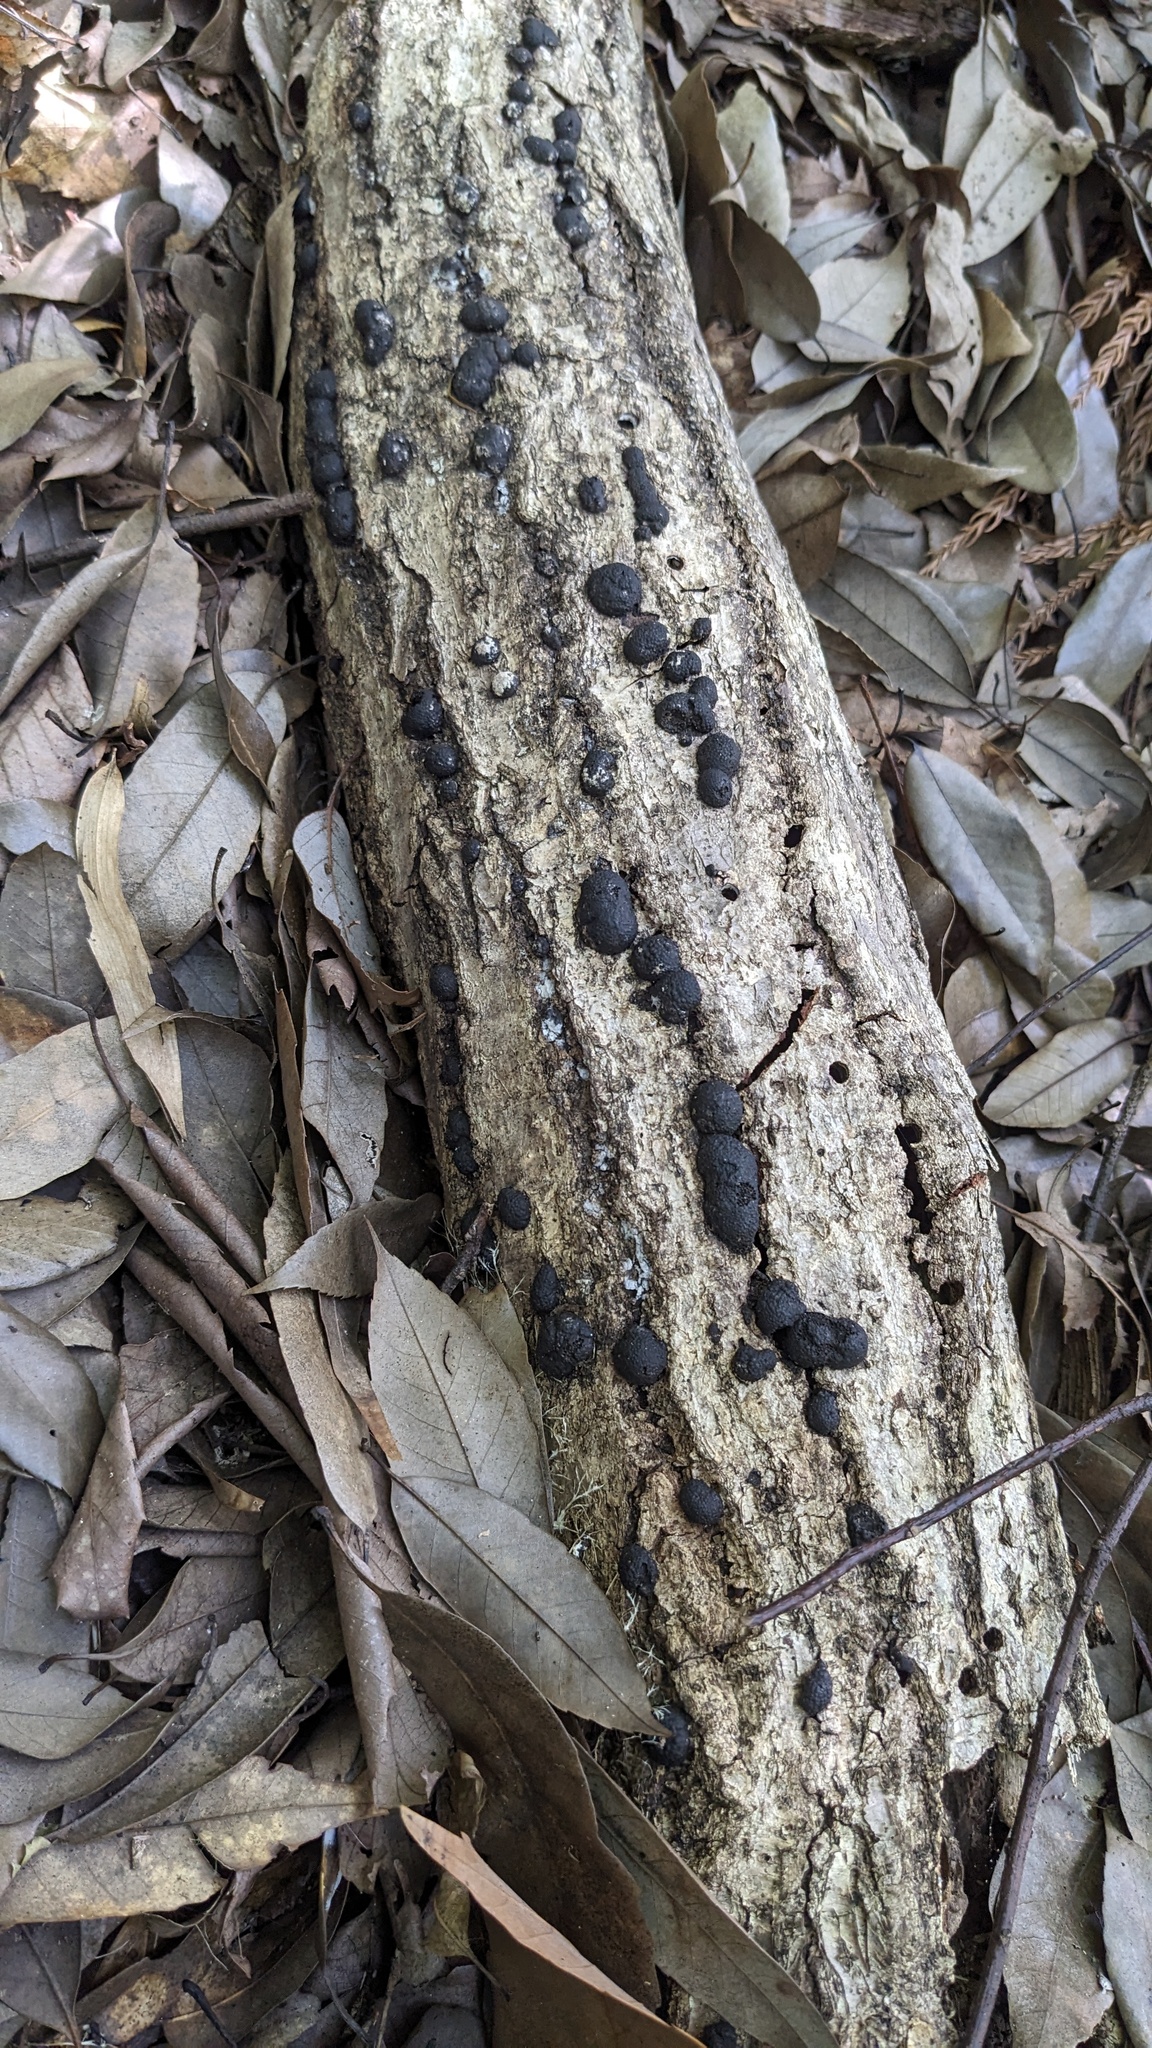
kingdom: Fungi
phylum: Ascomycota
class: Sordariomycetes
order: Xylariales
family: Hypoxylaceae
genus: Annulohypoxylon
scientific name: Annulohypoxylon truncatum
